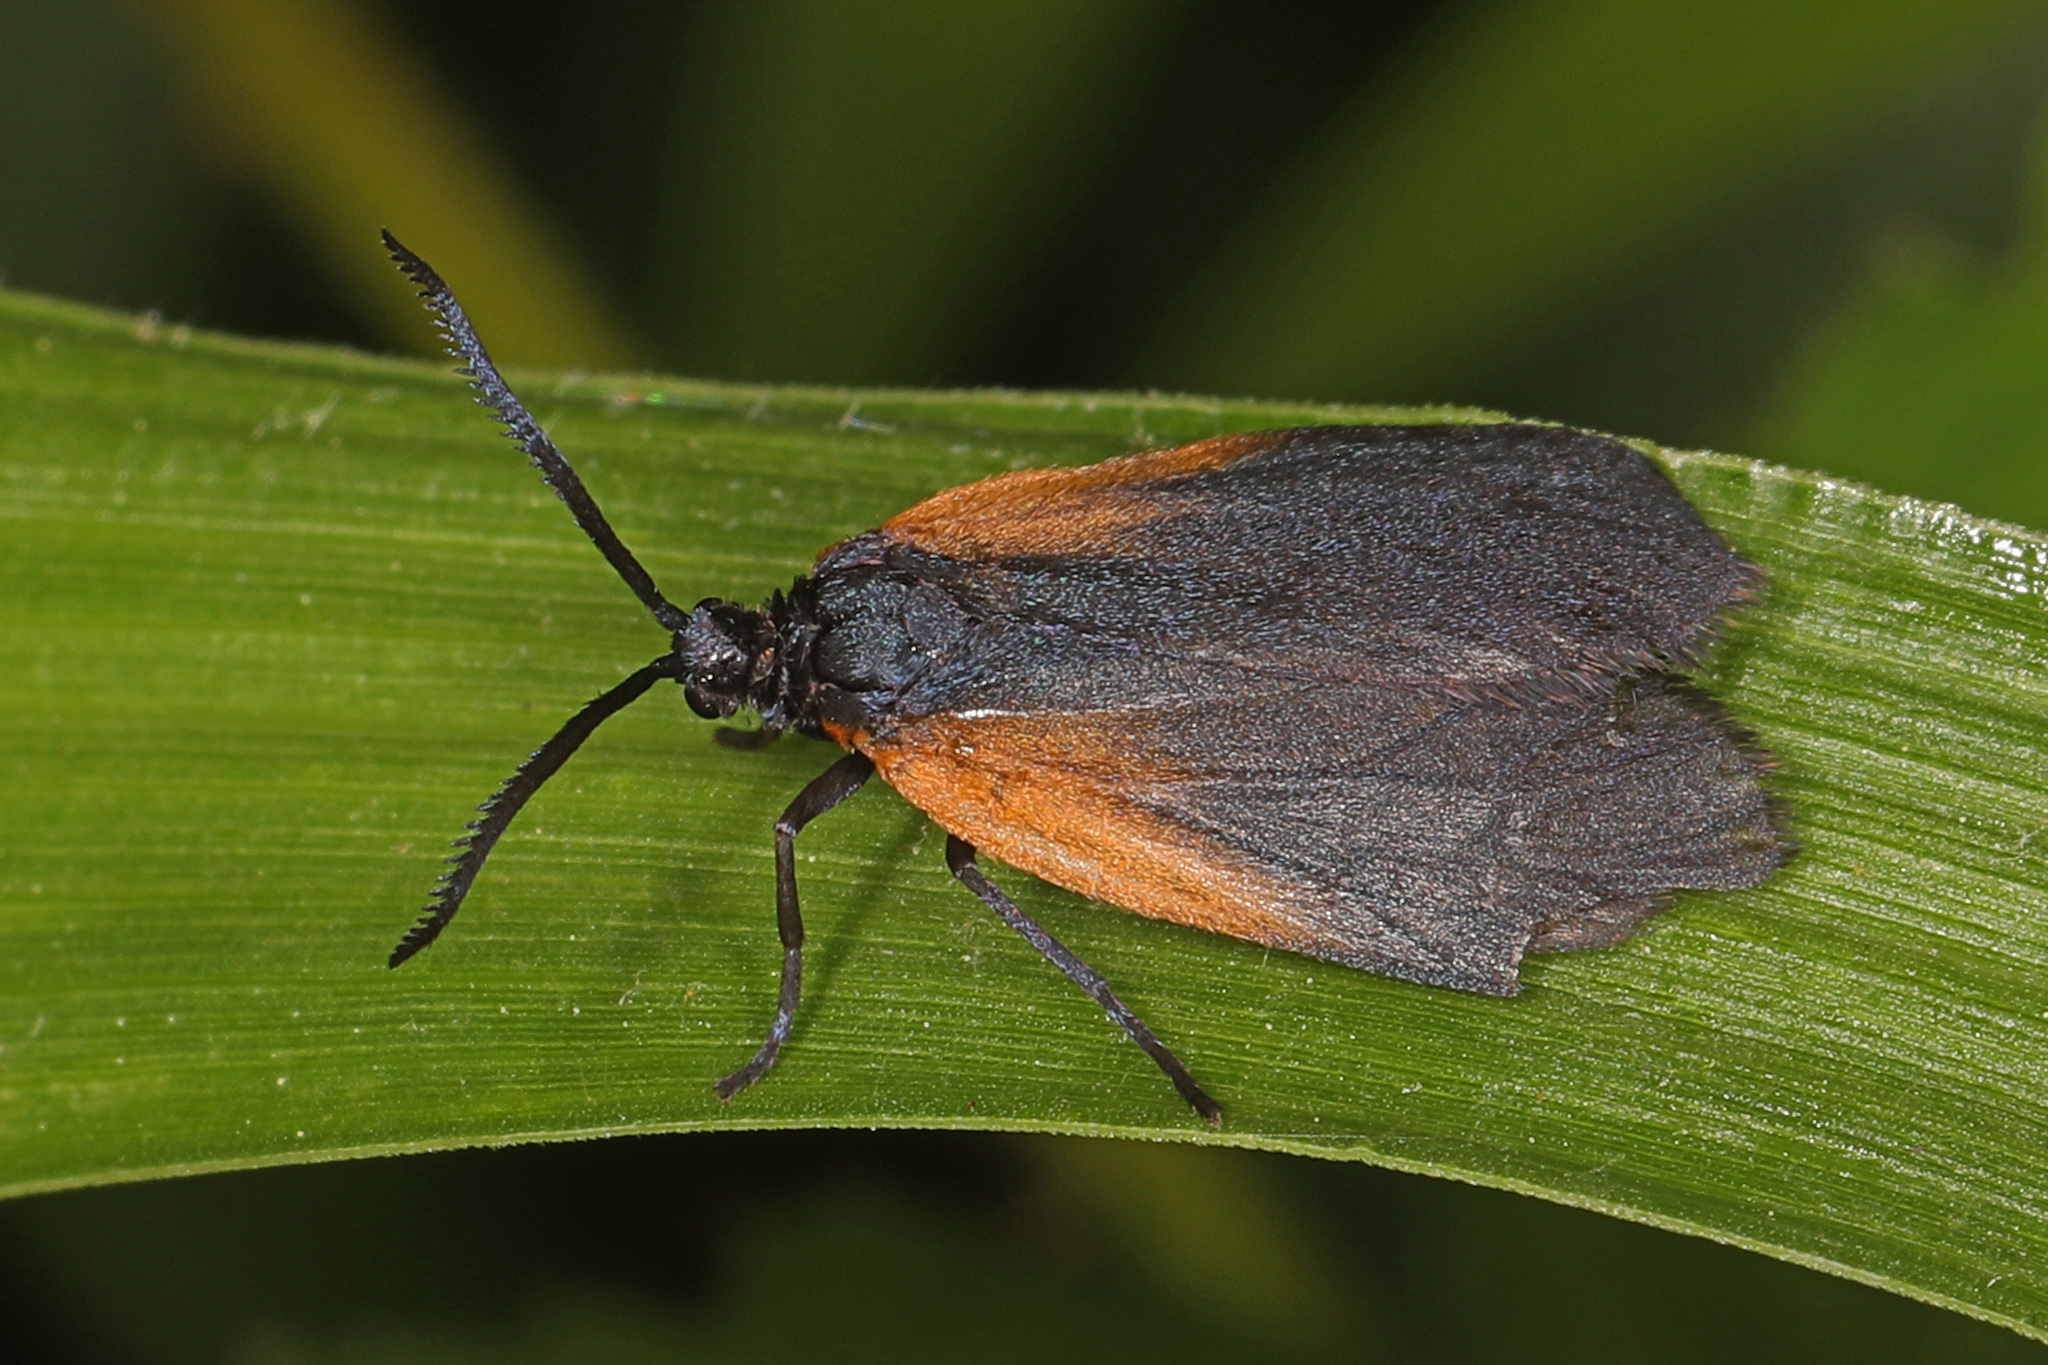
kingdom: Animalia
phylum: Arthropoda
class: Insecta
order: Lepidoptera
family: Zygaenidae
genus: Malthaca
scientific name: Malthaca dimidiata
